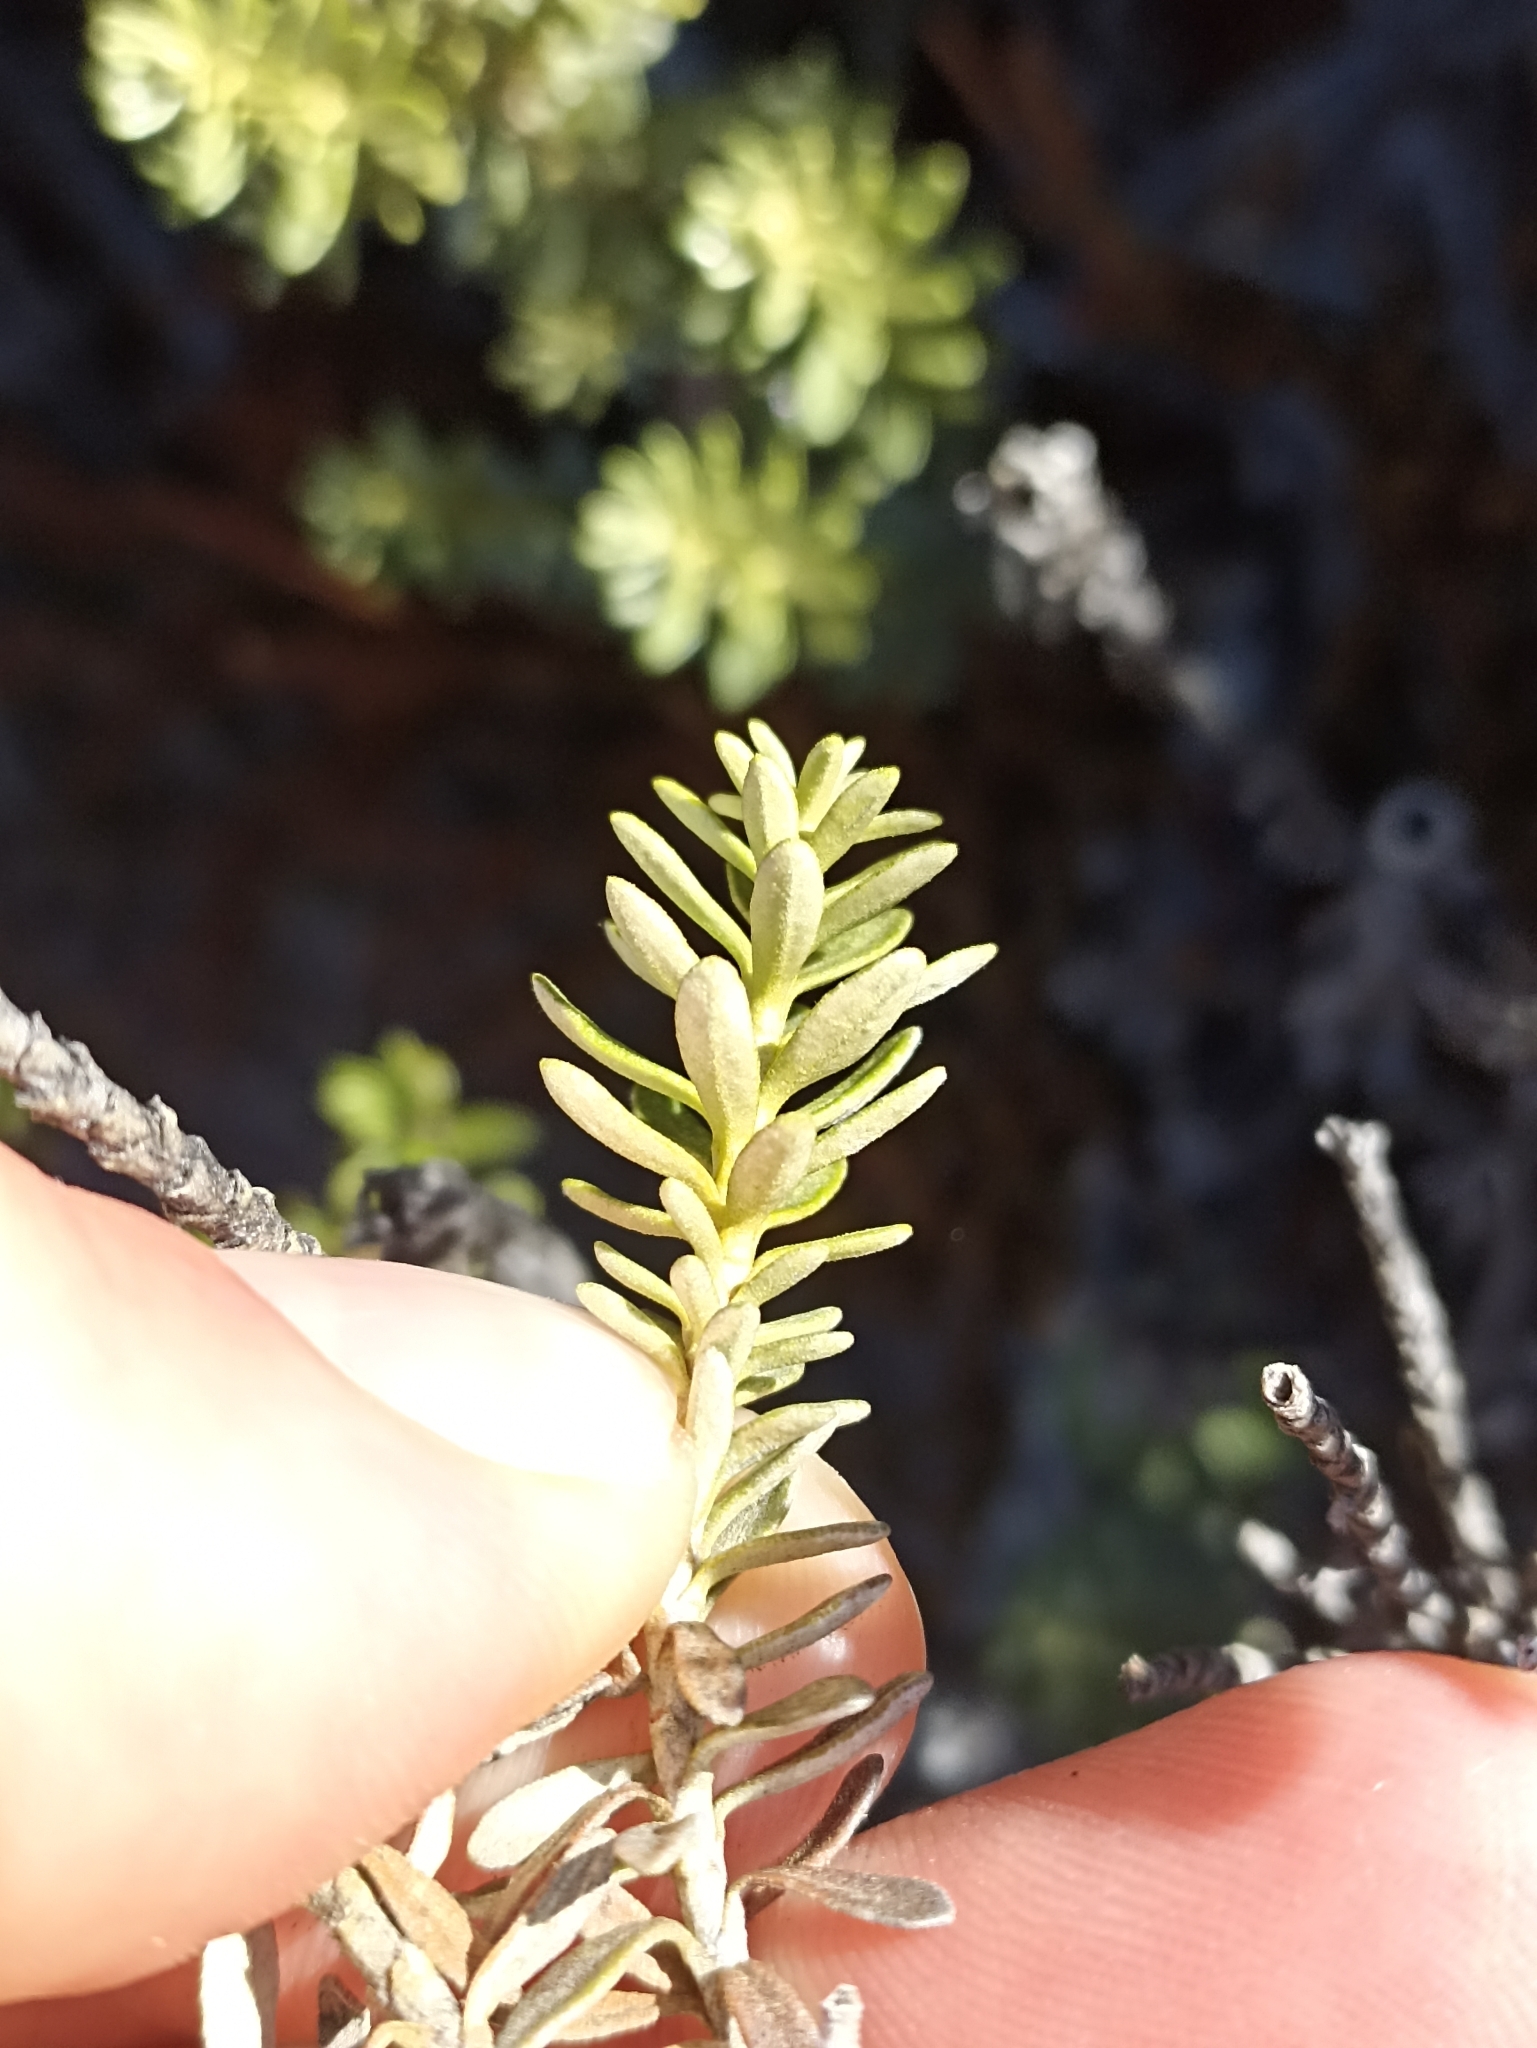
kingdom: Plantae
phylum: Tracheophyta
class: Magnoliopsida
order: Asterales
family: Asteraceae
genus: Ozothamnus
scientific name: Ozothamnus leptophyllus
